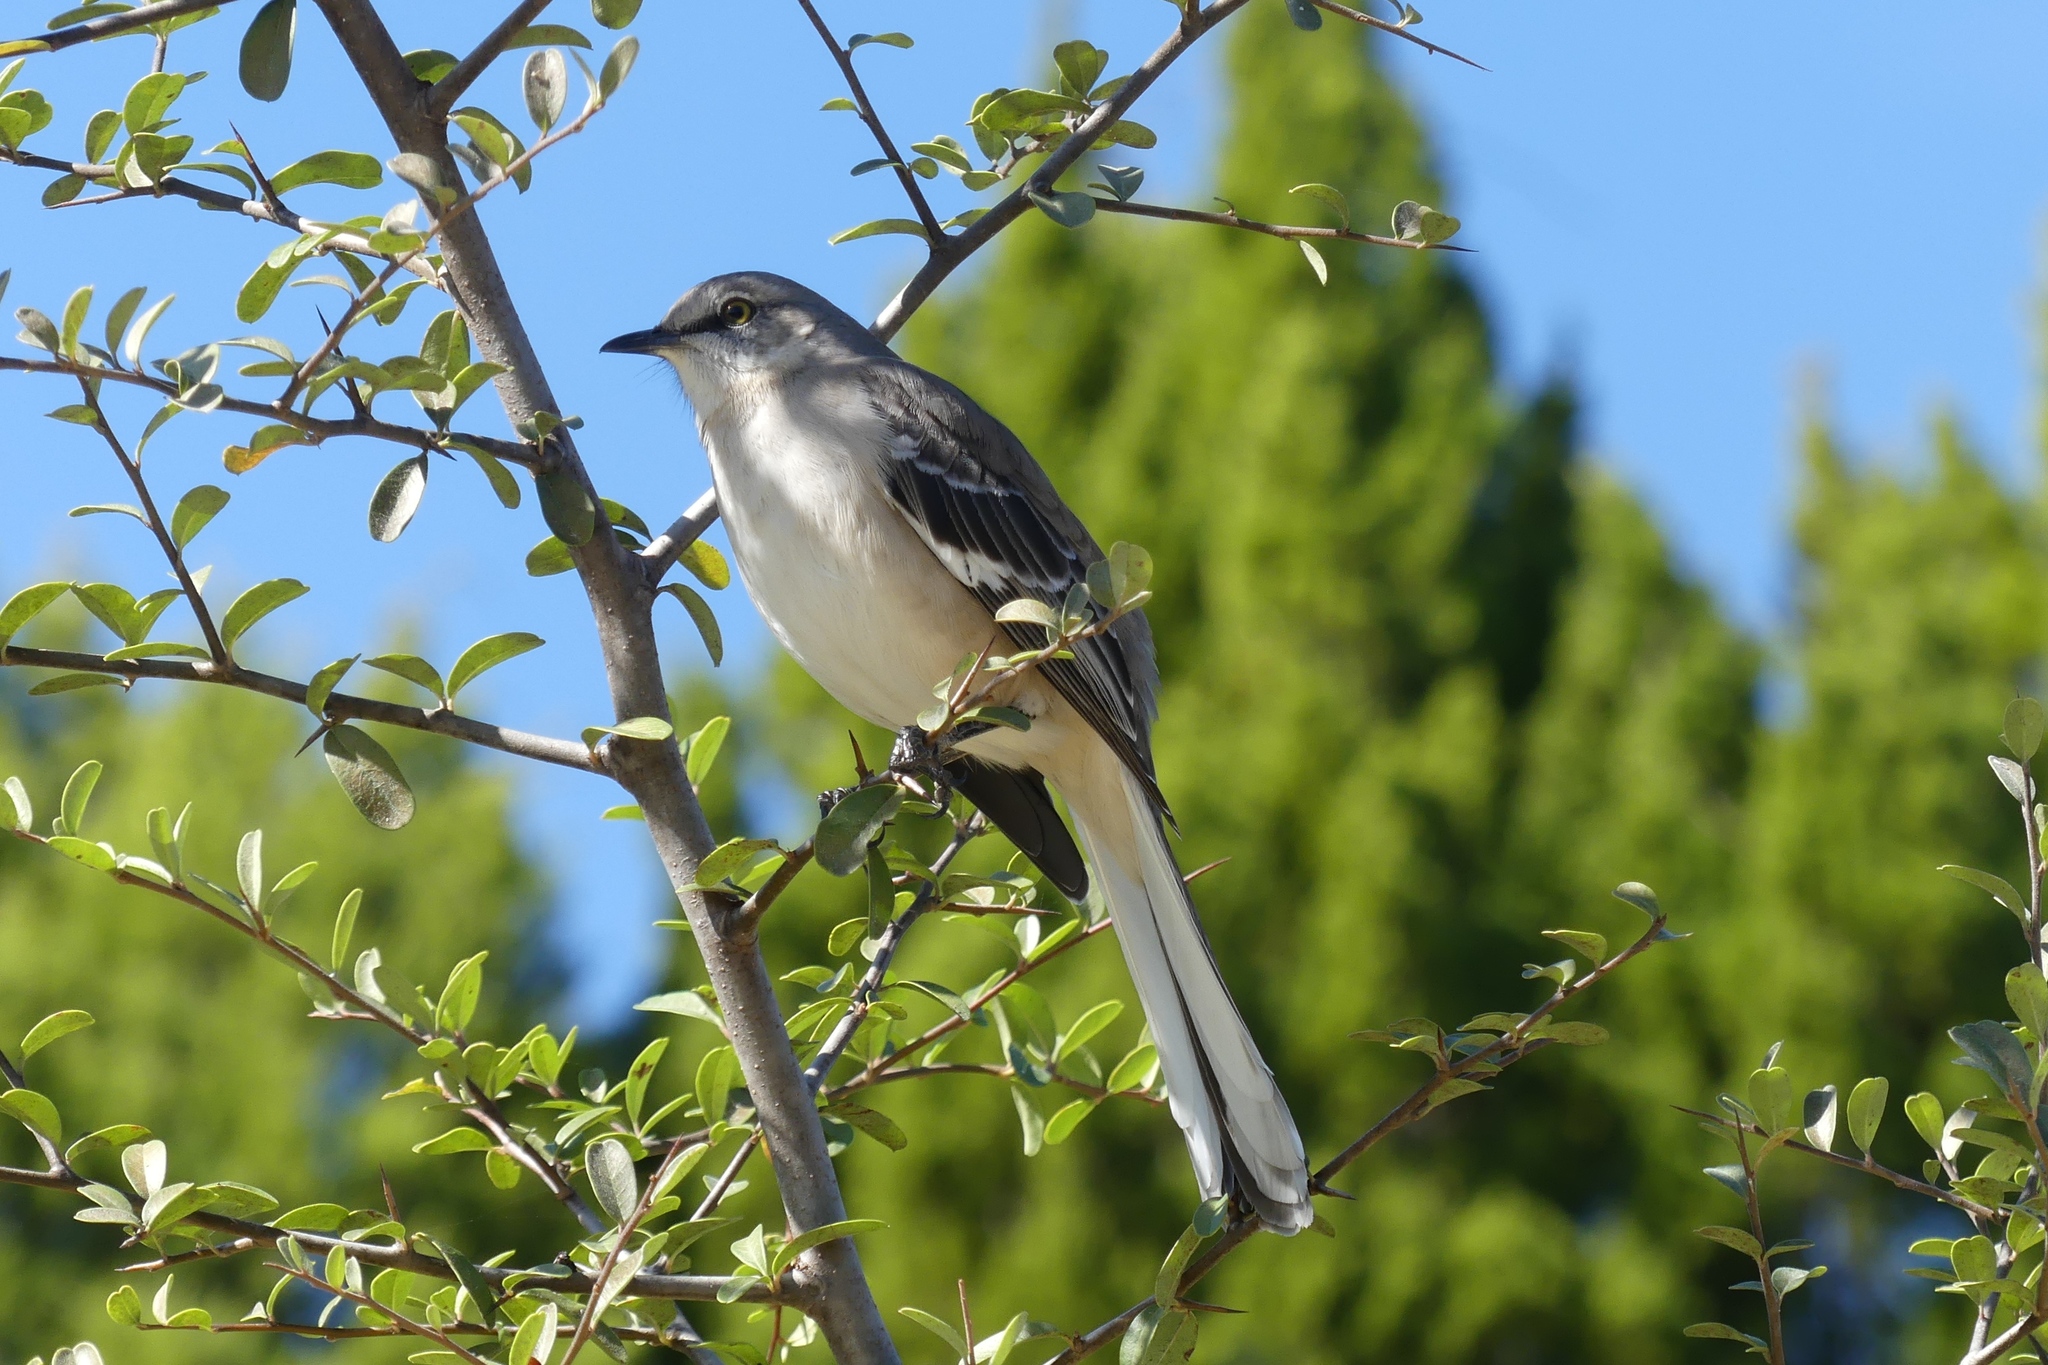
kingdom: Animalia
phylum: Chordata
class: Aves
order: Passeriformes
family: Mimidae
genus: Mimus
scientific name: Mimus polyglottos
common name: Northern mockingbird
